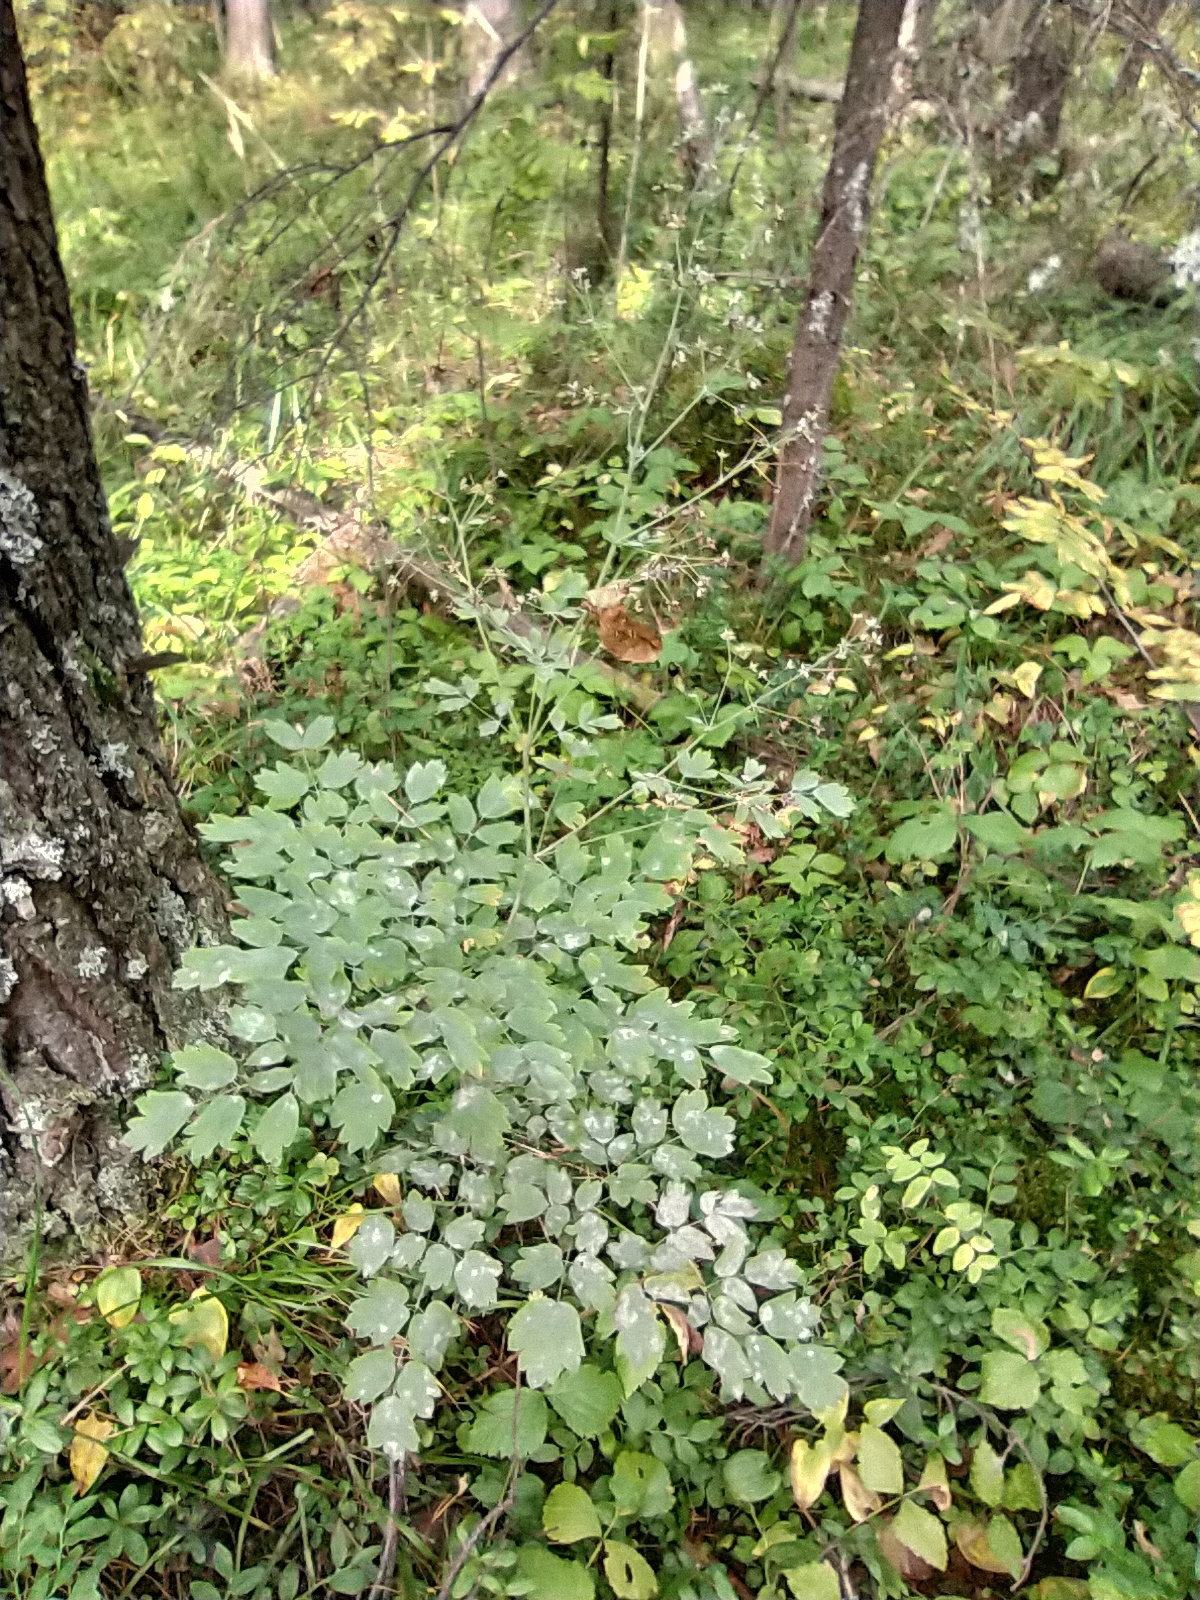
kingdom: Plantae
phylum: Tracheophyta
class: Magnoliopsida
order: Ranunculales
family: Ranunculaceae
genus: Thalictrum
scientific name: Thalictrum minus
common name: Lesser meadow-rue
